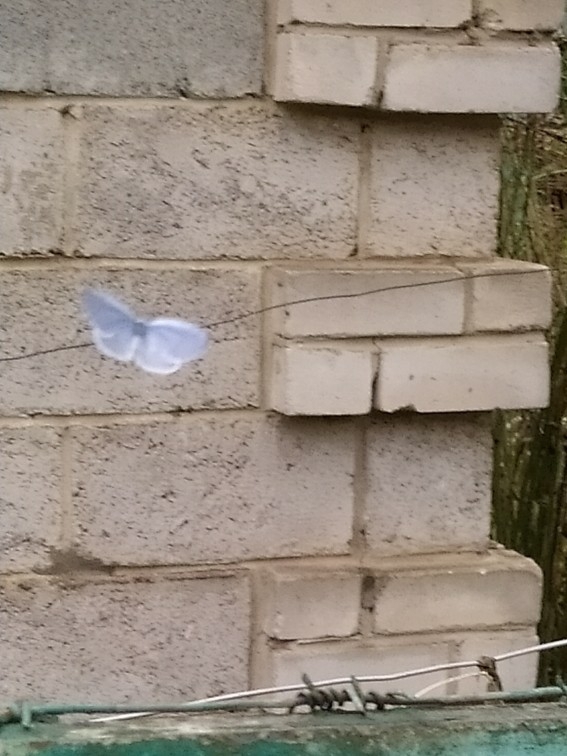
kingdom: Animalia
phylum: Arthropoda
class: Insecta
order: Lepidoptera
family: Lycaenidae
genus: Celastrina
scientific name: Celastrina argiolus
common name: Holly blue
